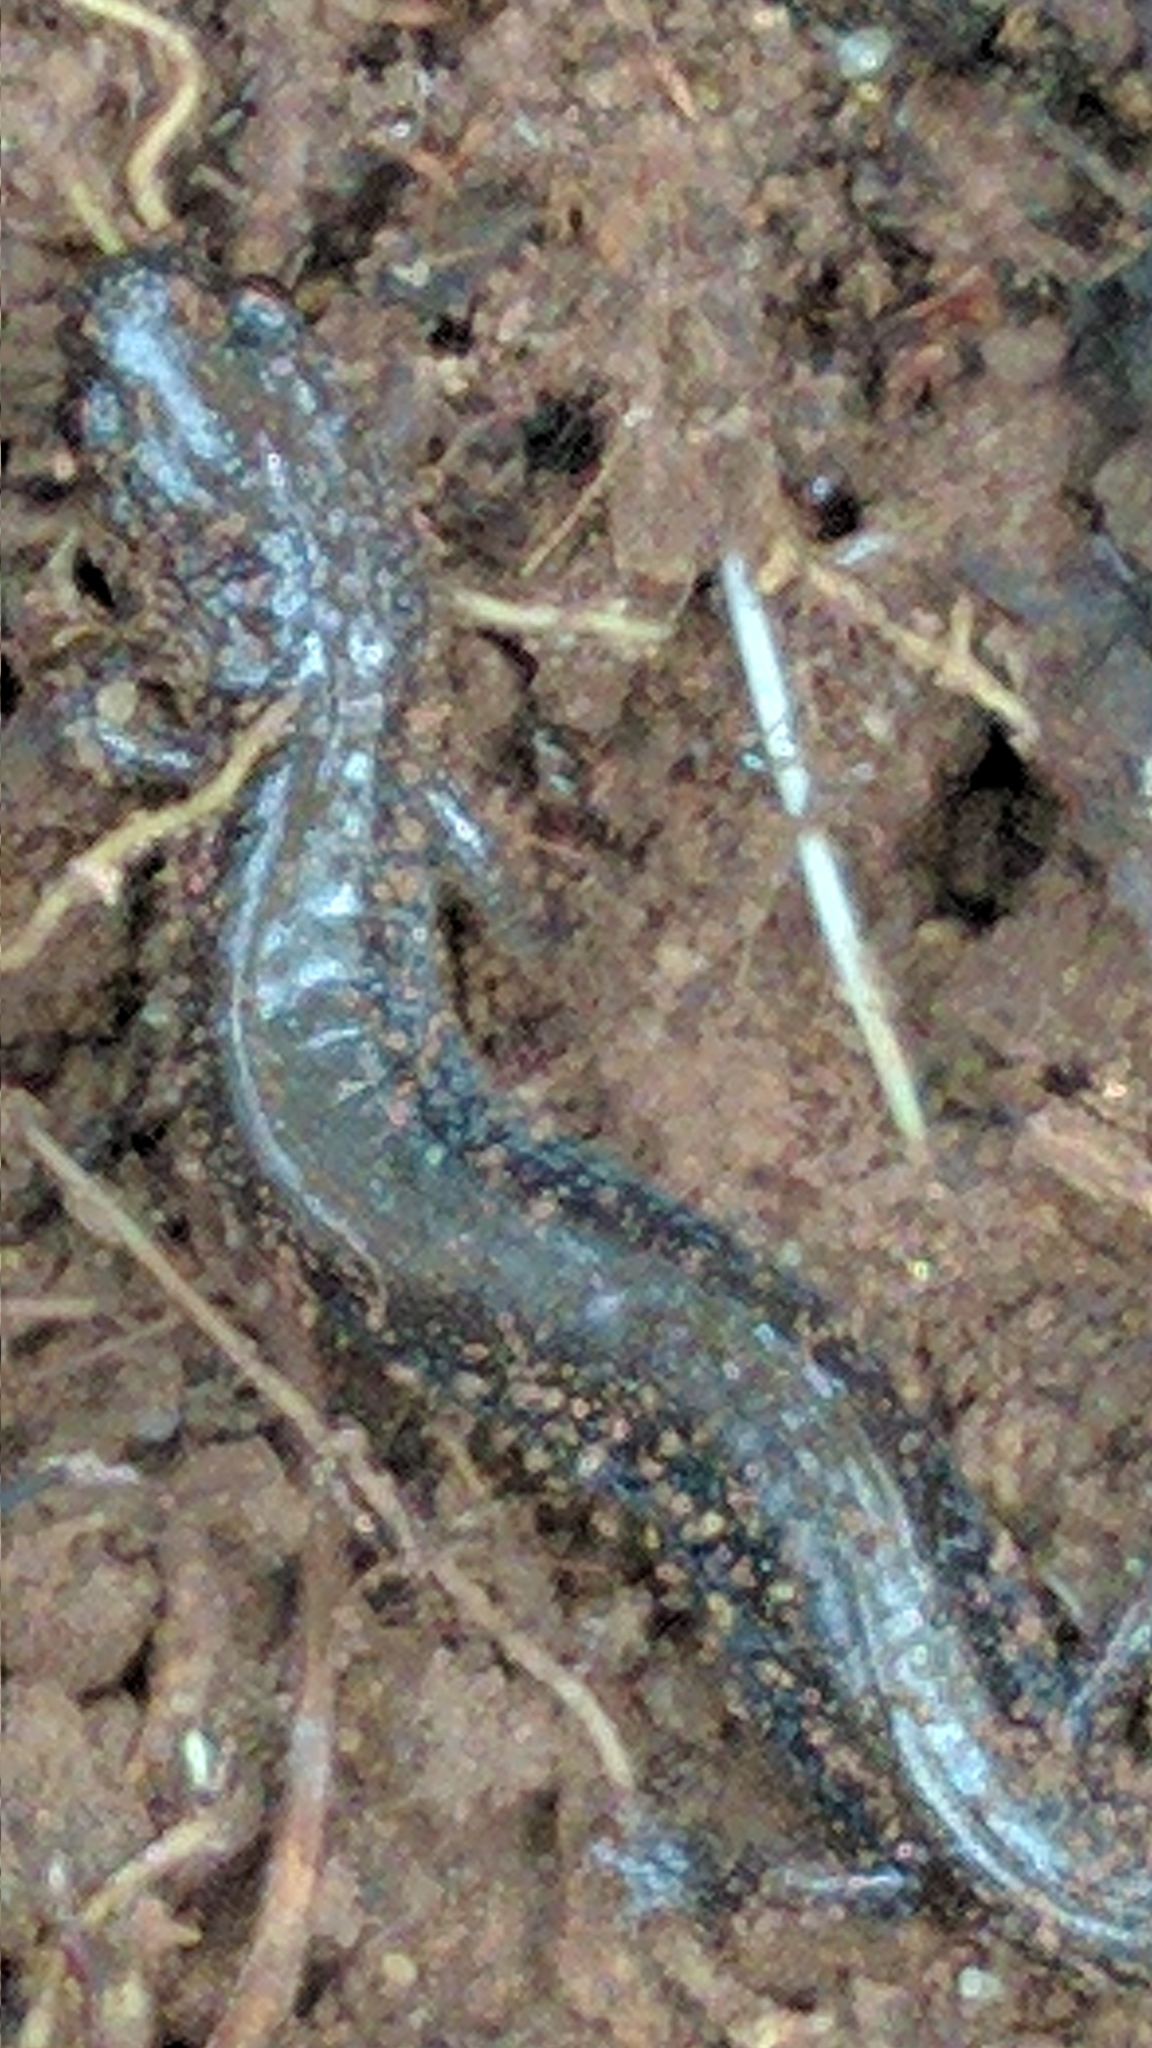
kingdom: Animalia
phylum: Chordata
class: Amphibia
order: Caudata
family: Plethodontidae
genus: Plethodon
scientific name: Plethodon cinereus
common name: Redback salamander
